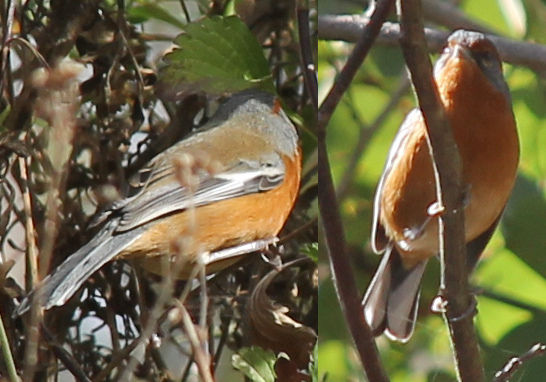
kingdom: Animalia
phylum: Chordata
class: Aves
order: Passeriformes
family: Thraupidae
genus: Microspingus
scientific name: Microspingus erythrophrys
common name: Rusty-browed warbling-finch
